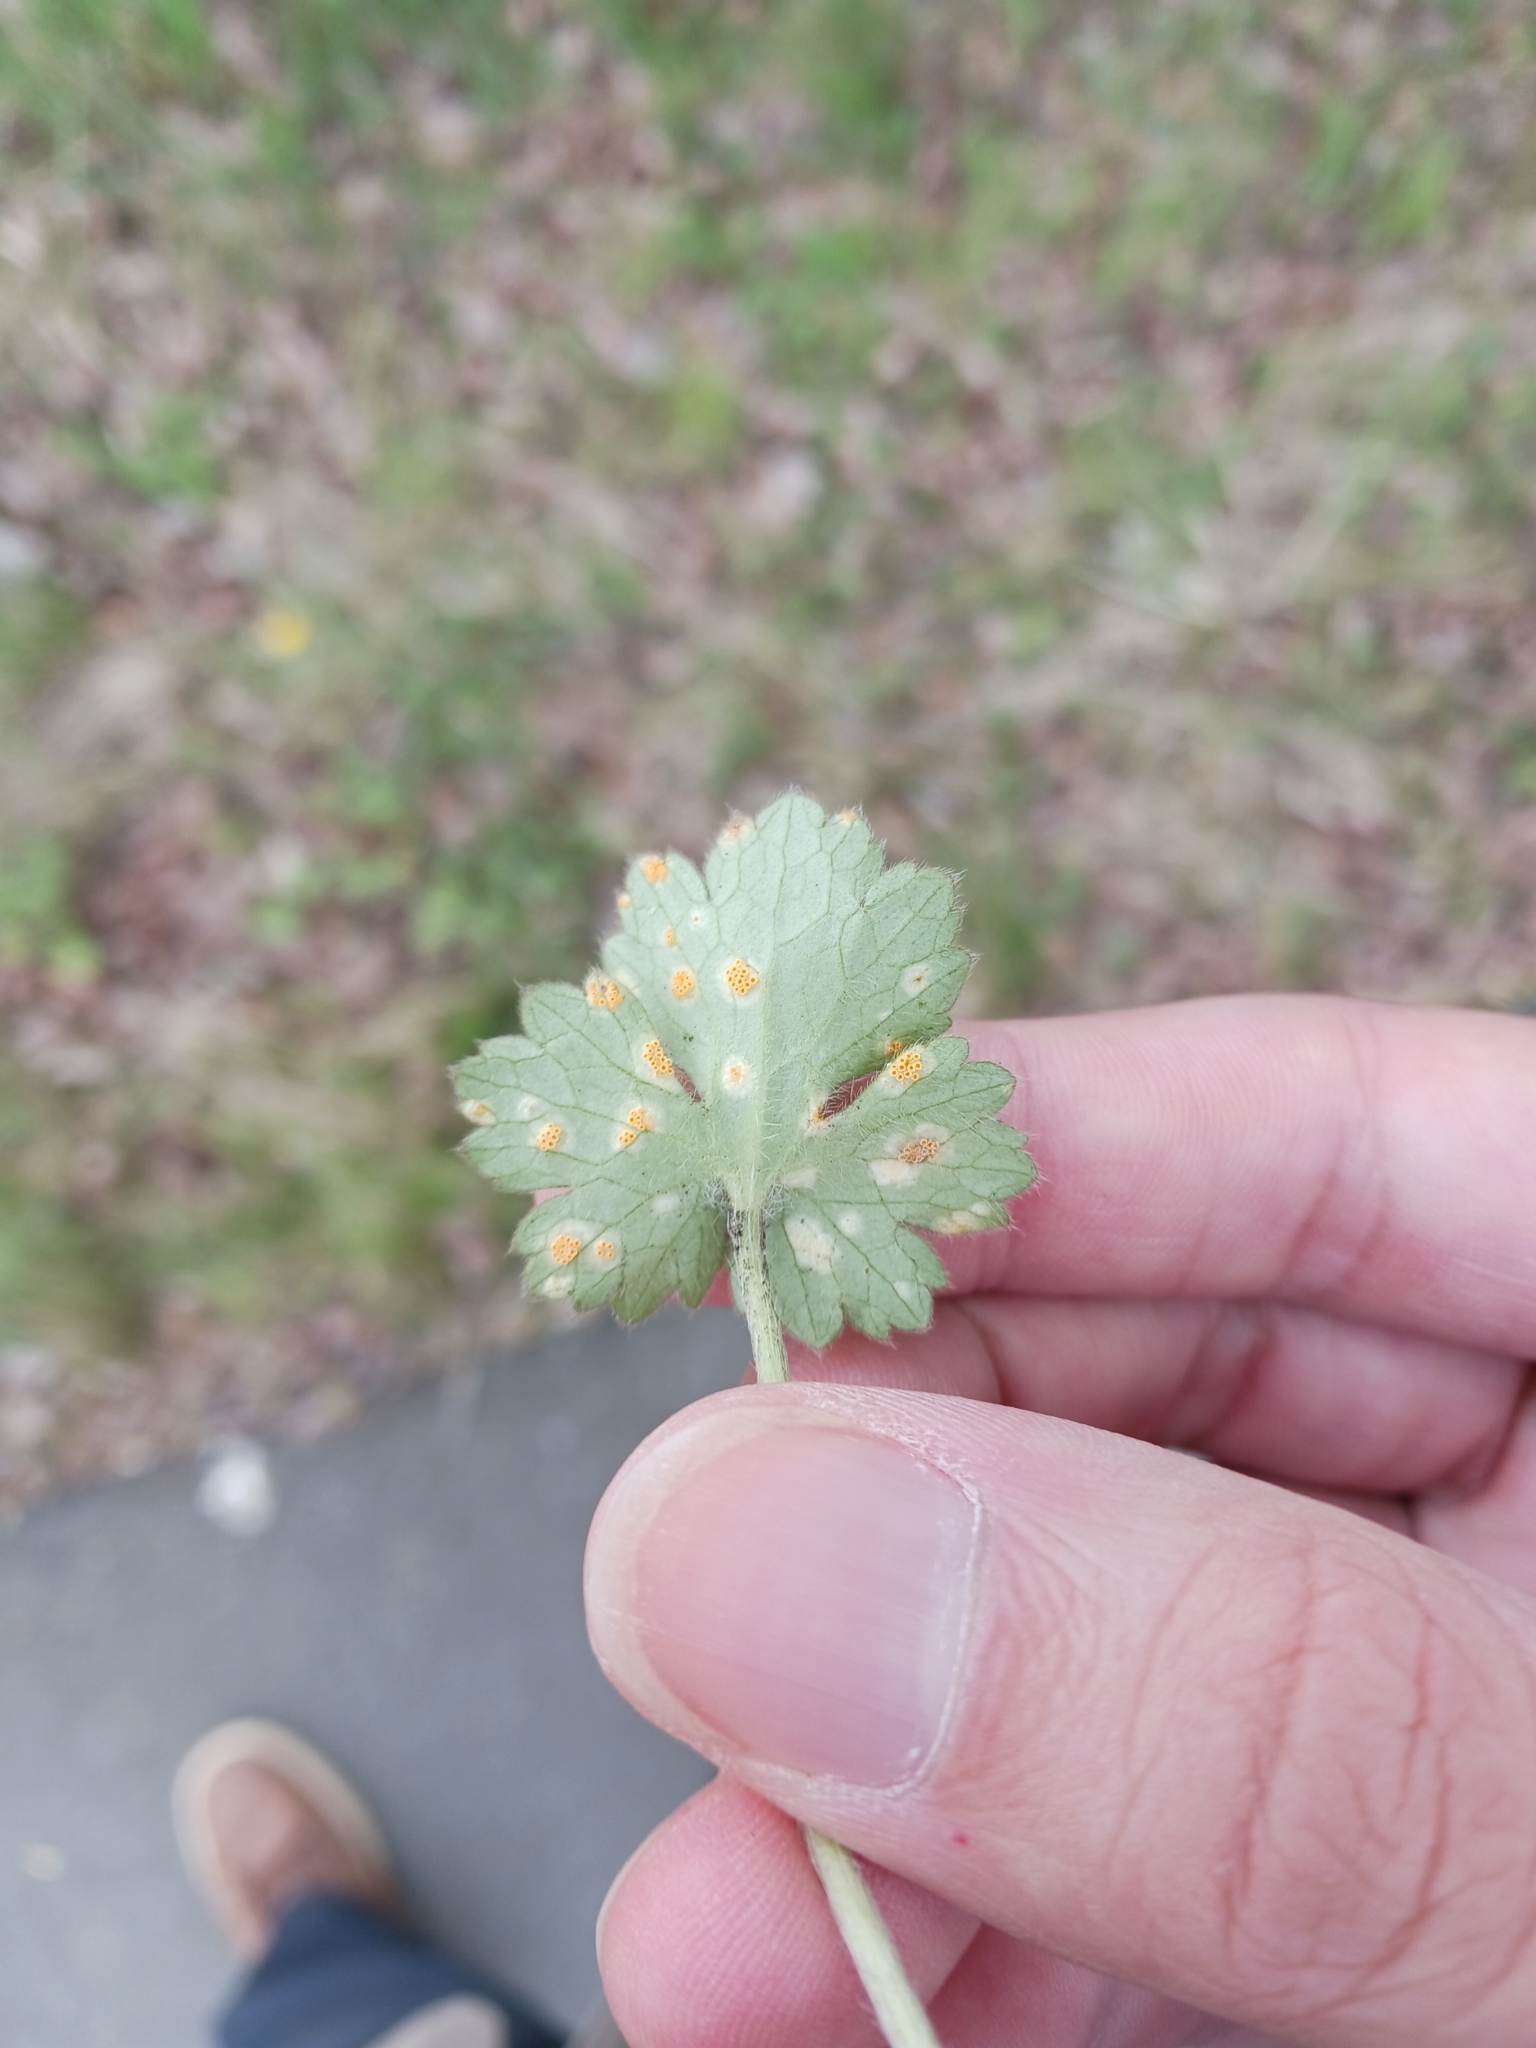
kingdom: Fungi
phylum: Basidiomycota
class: Pucciniomycetes
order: Pucciniales
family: Pucciniaceae
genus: Aecidium
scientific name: Aecidium ranunculi-acris
